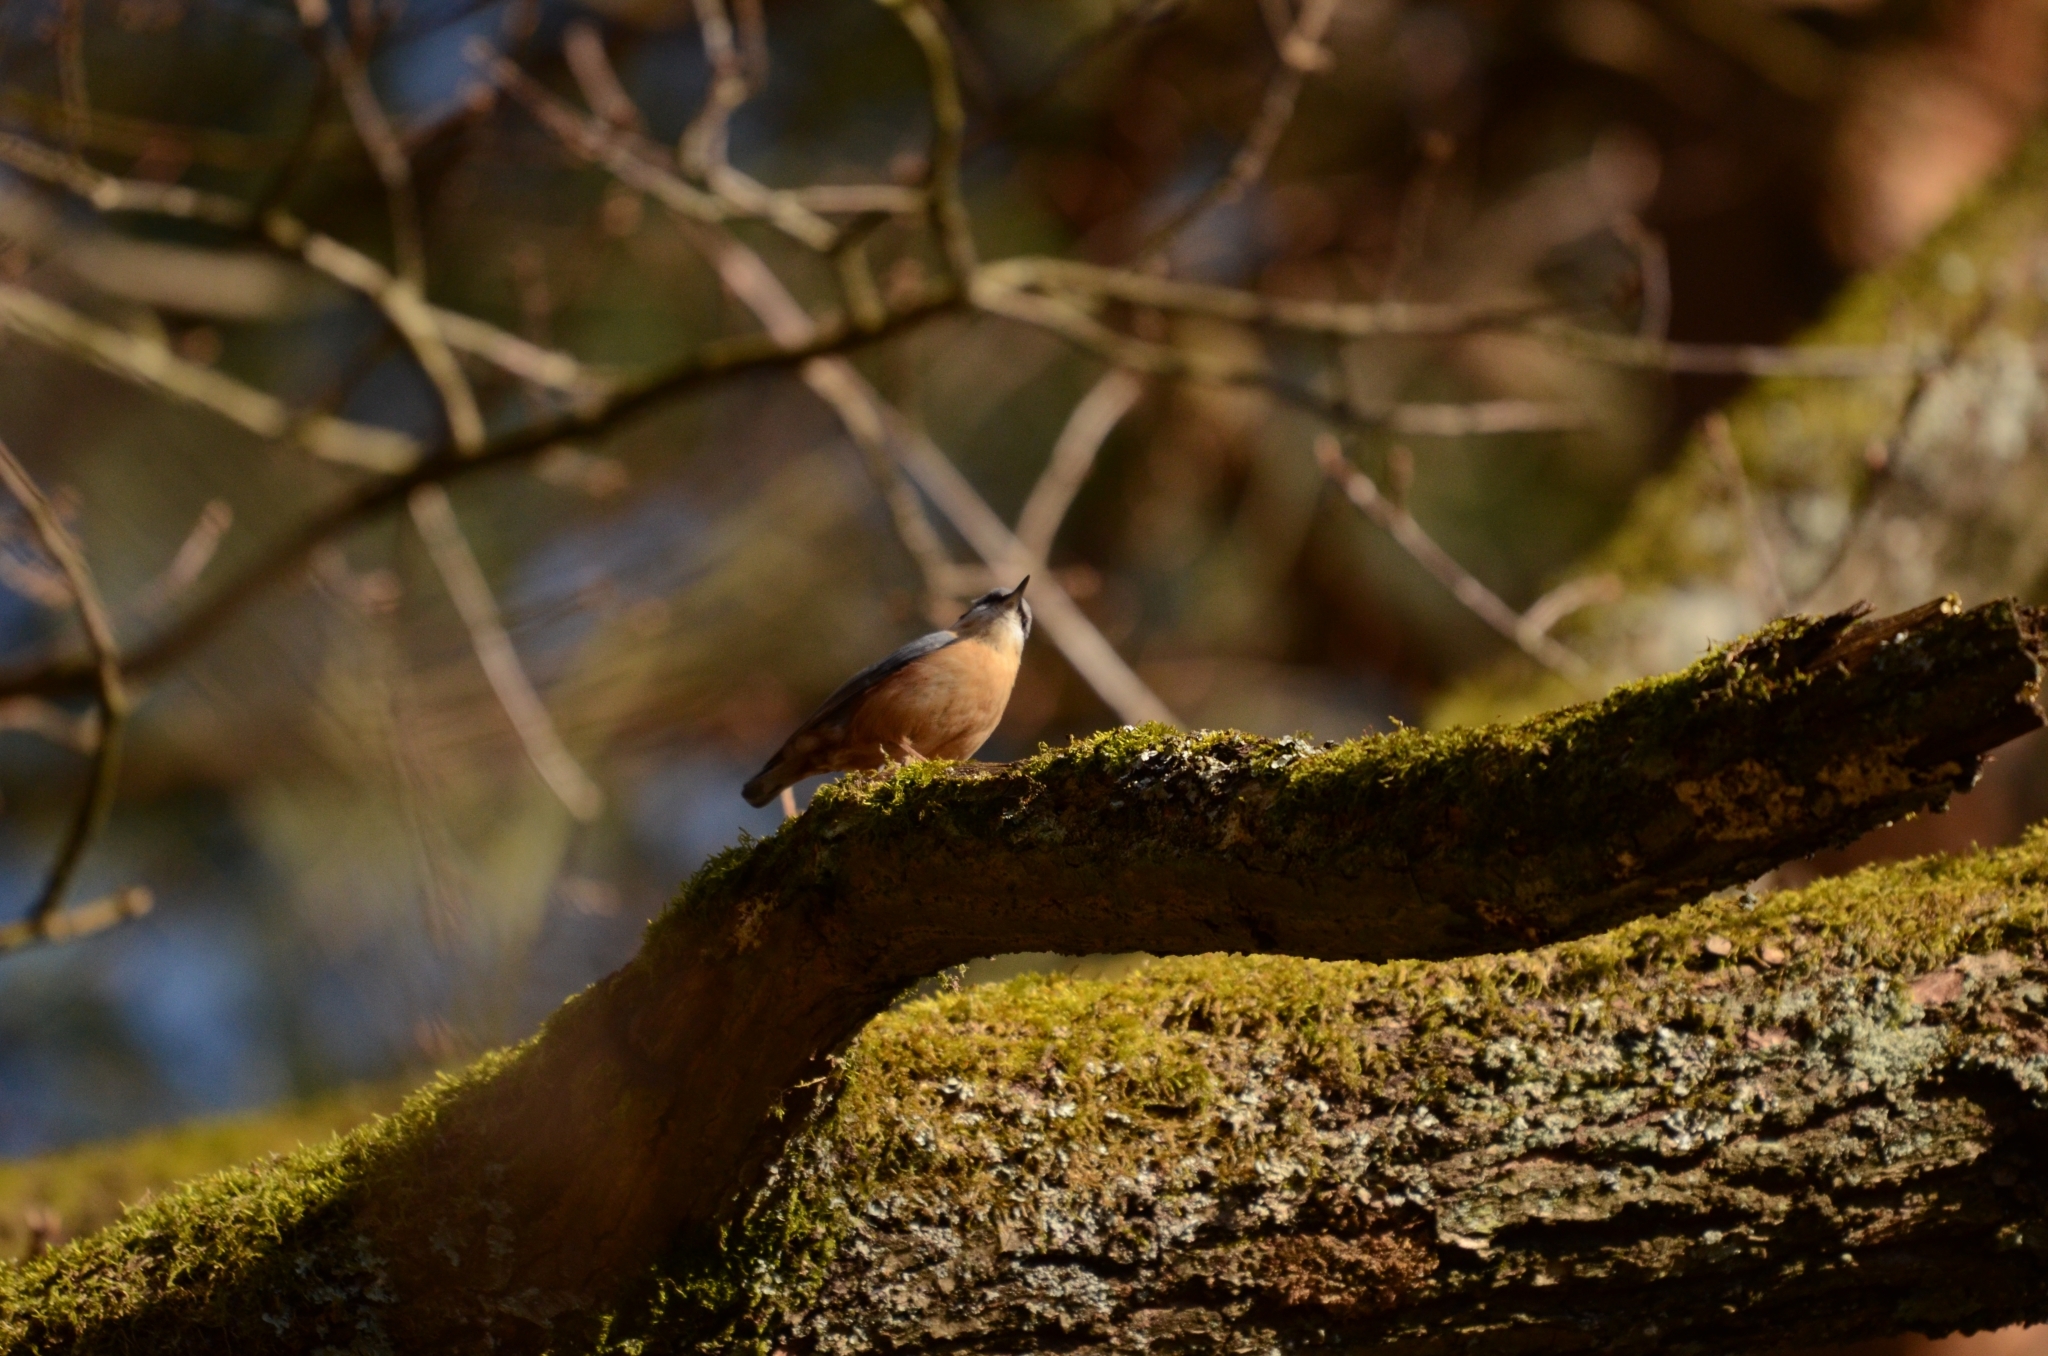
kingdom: Animalia
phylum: Chordata
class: Aves
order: Passeriformes
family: Sittidae
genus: Sitta
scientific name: Sitta europaea
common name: Eurasian nuthatch
